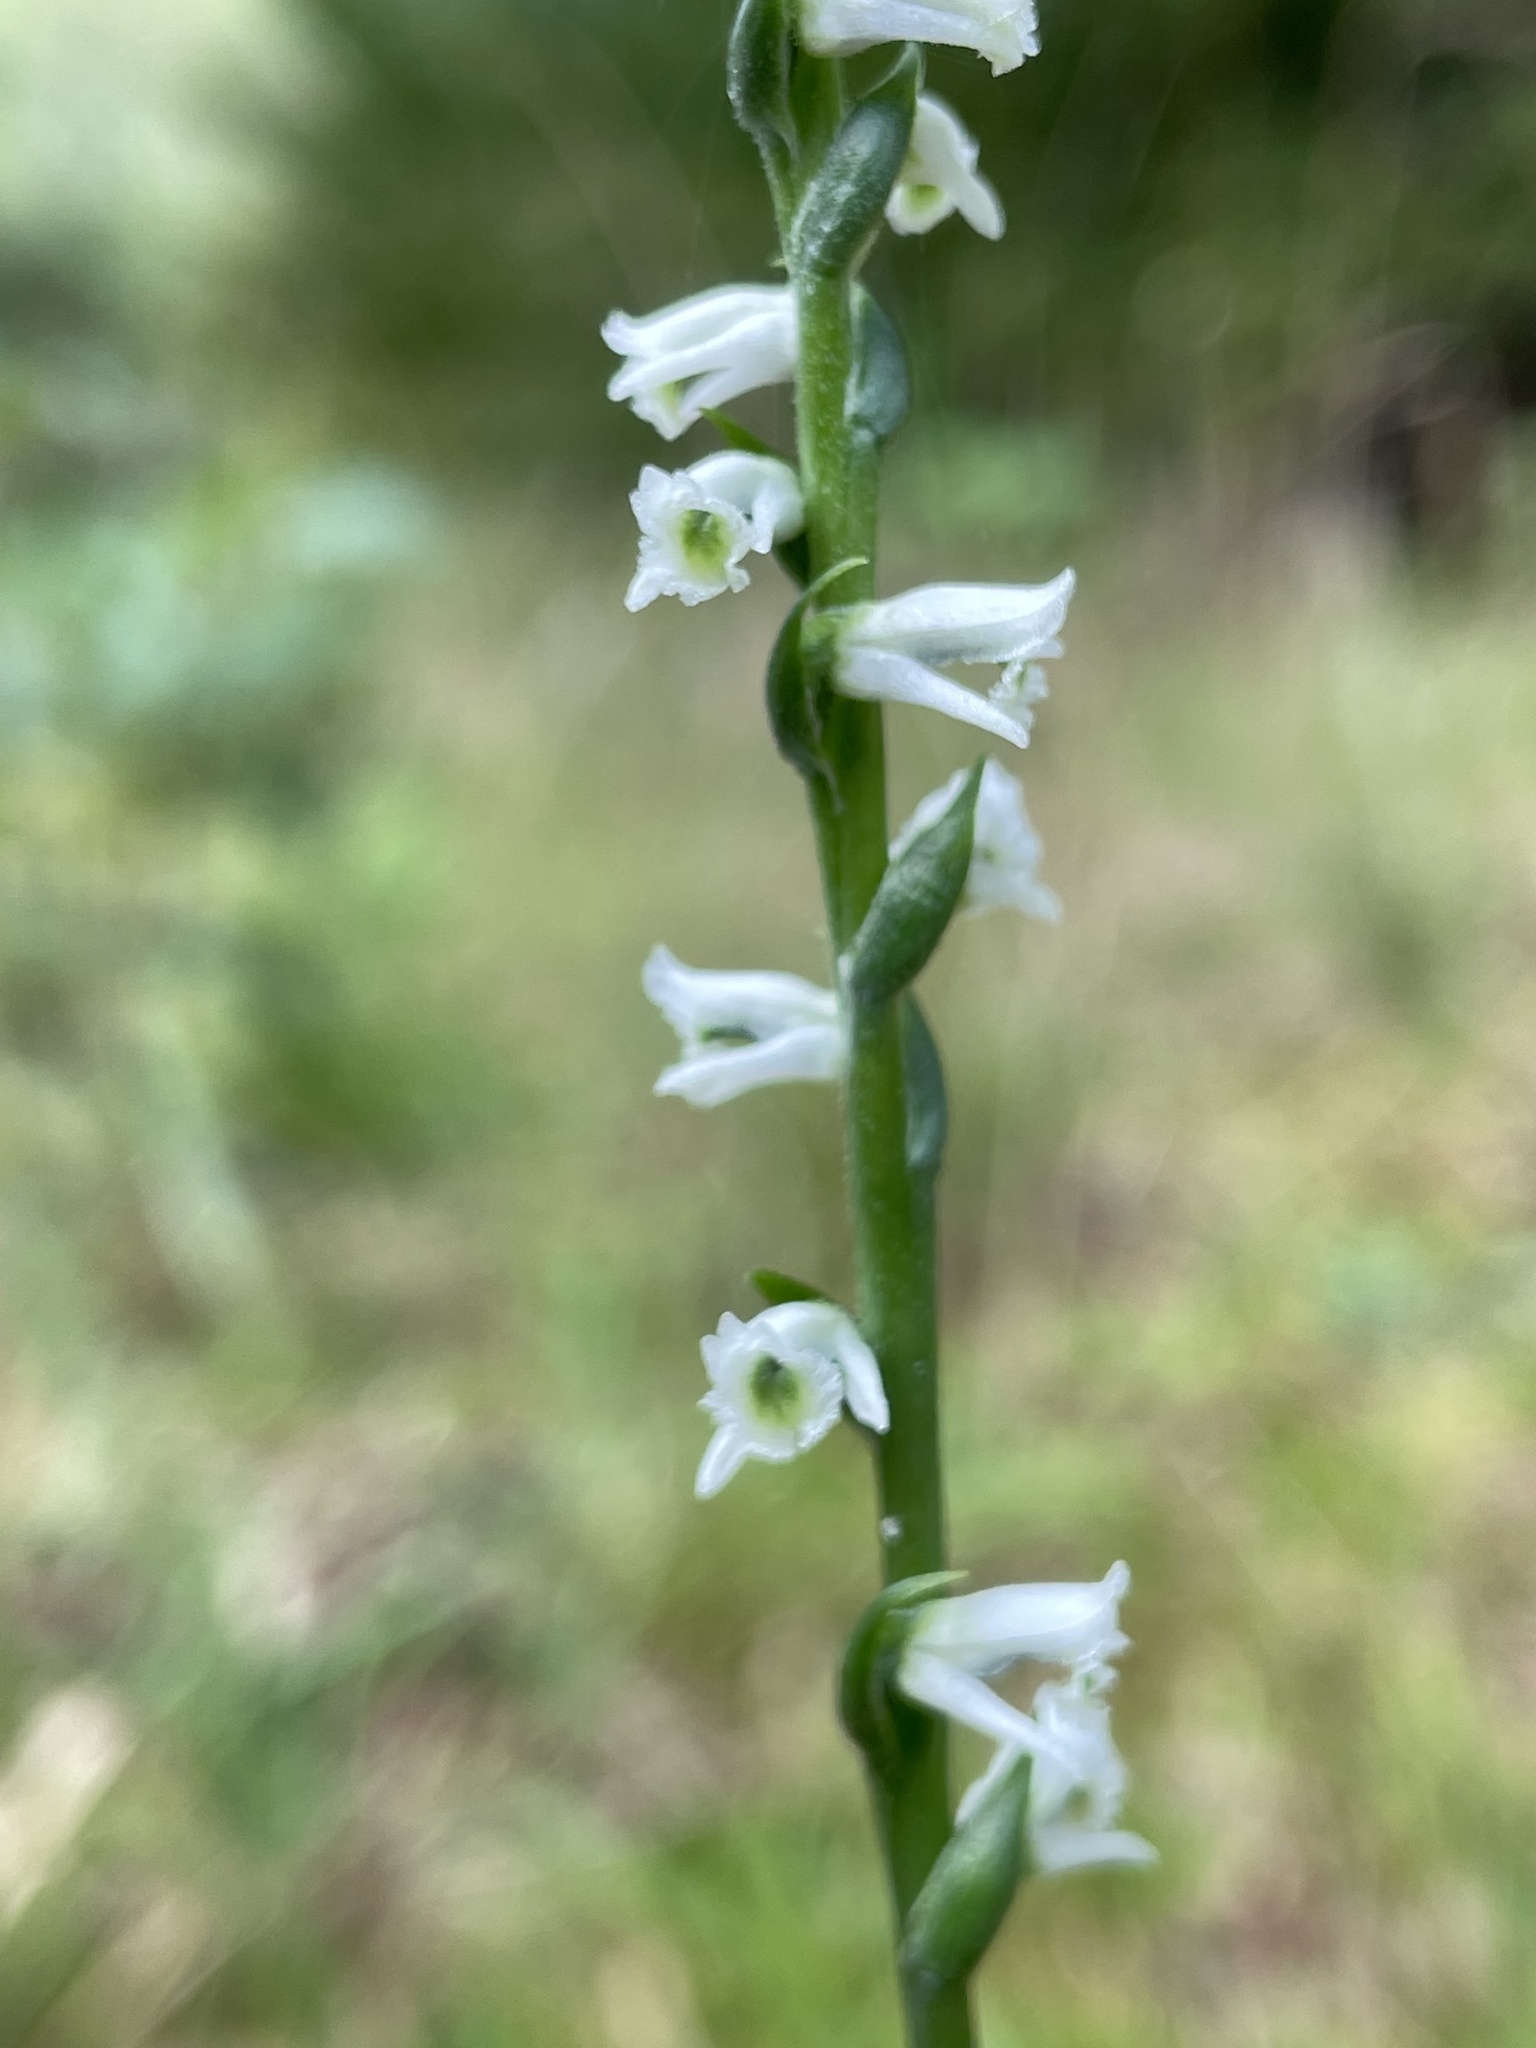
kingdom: Plantae
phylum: Tracheophyta
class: Liliopsida
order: Asparagales
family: Orchidaceae
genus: Spiranthes
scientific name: Spiranthes lacera
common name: Northern slender ladies'-tresses
